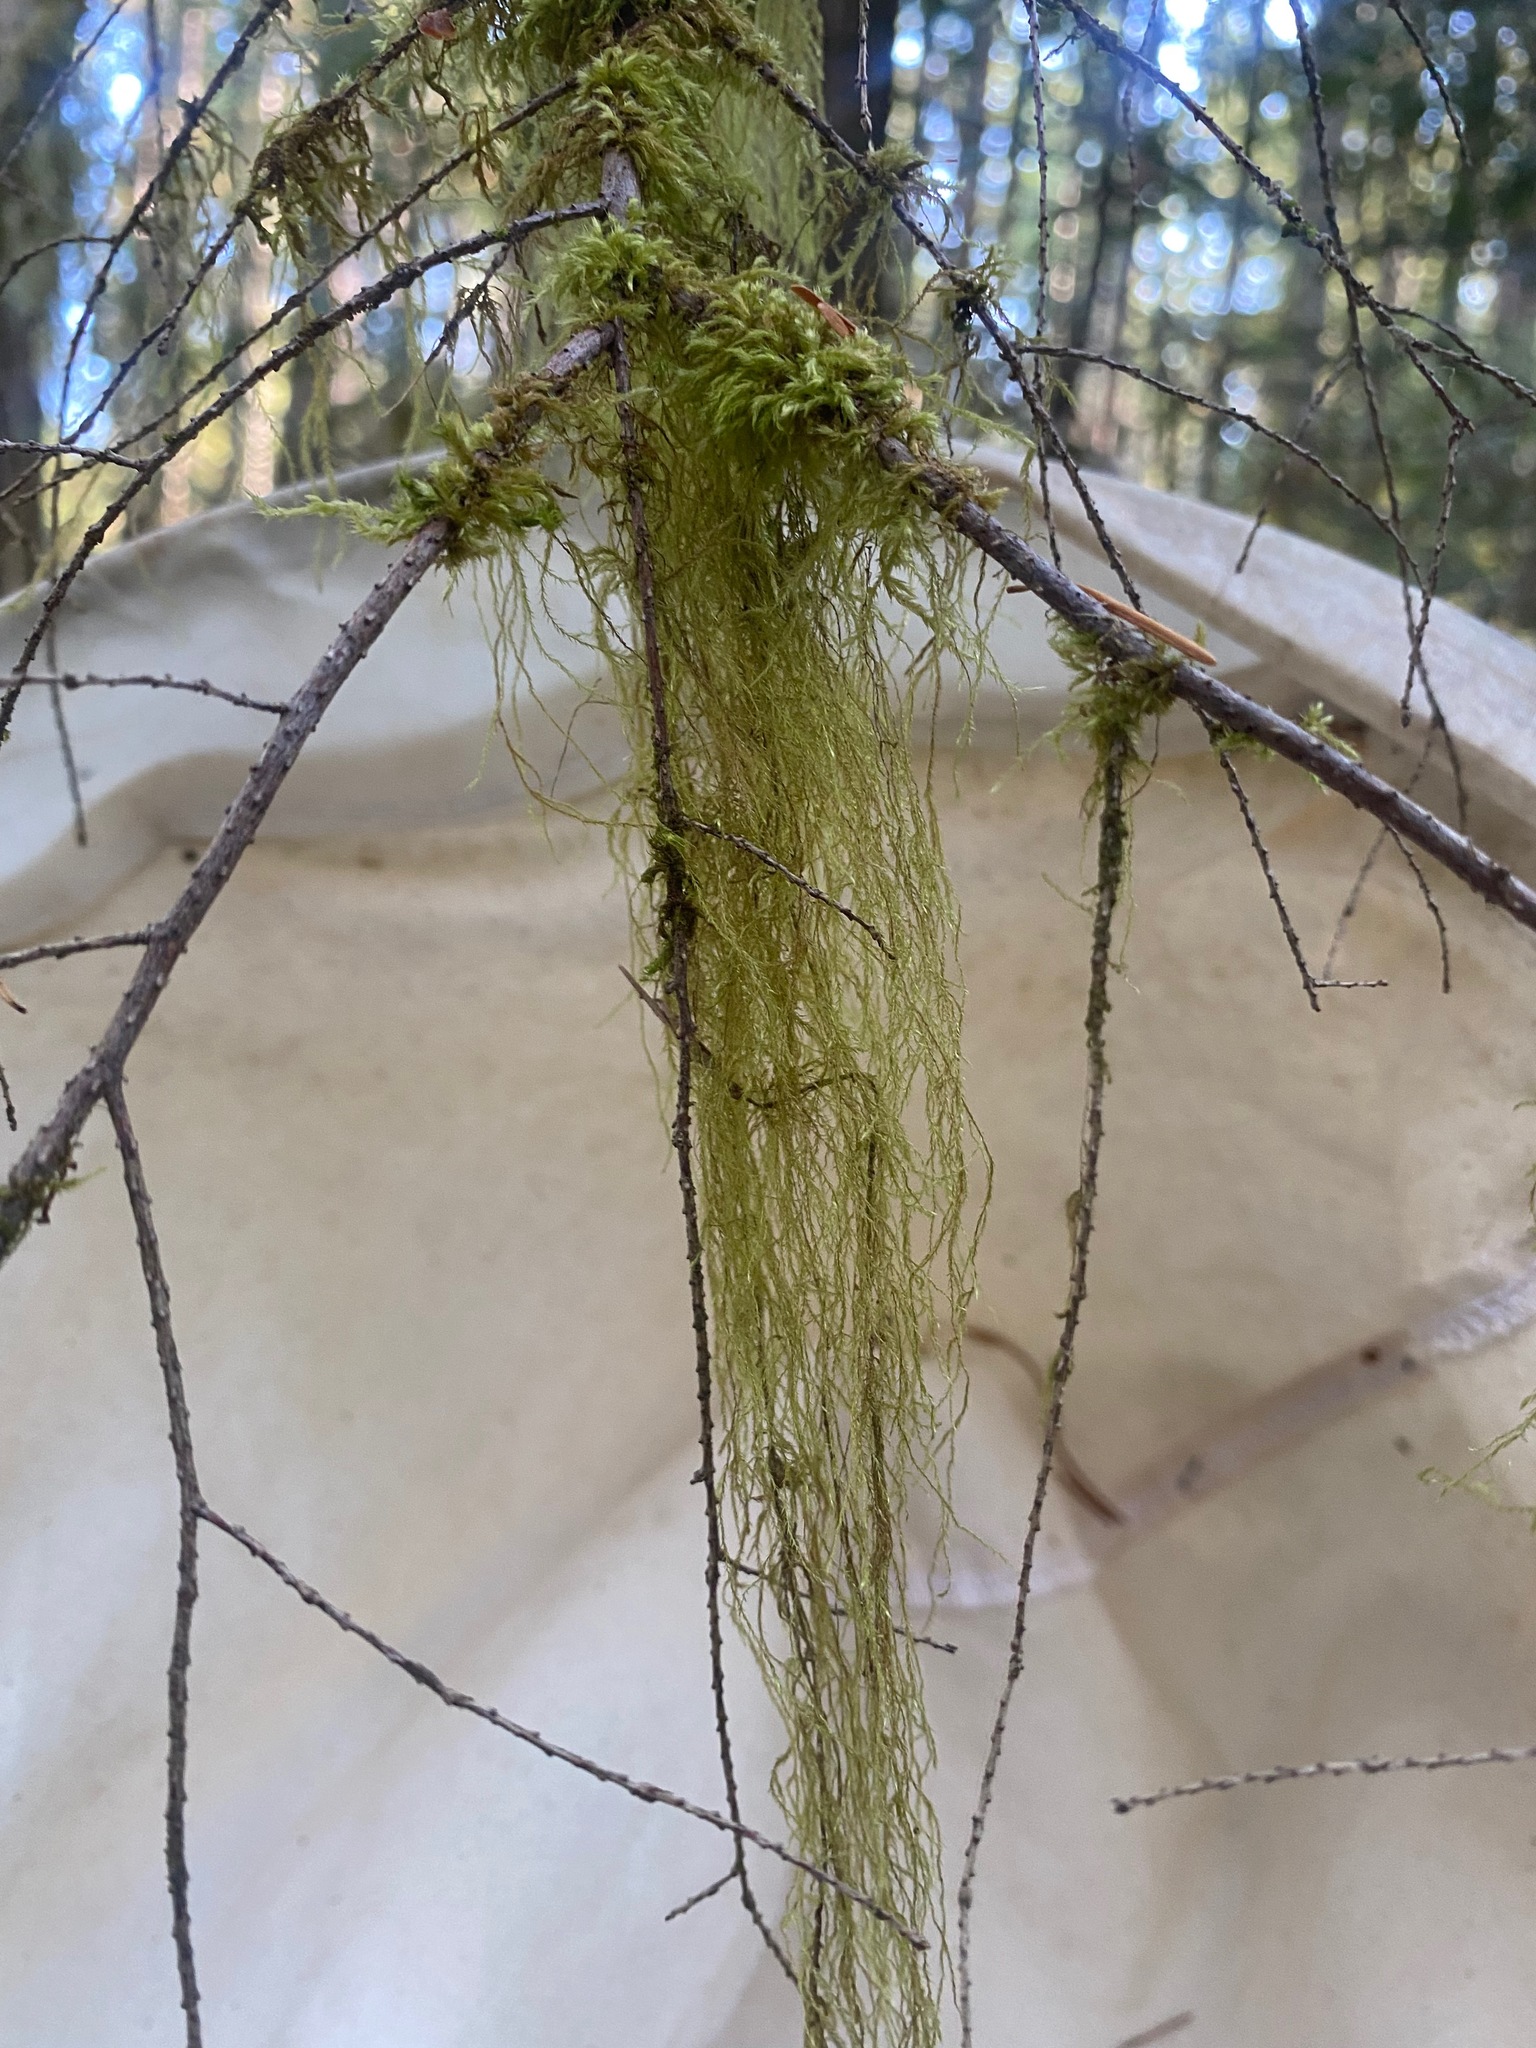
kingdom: Plantae
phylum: Bryophyta
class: Bryopsida
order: Hypnales
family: Lembophyllaceae
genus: Pseudisothecium
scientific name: Pseudisothecium stoloniferum
